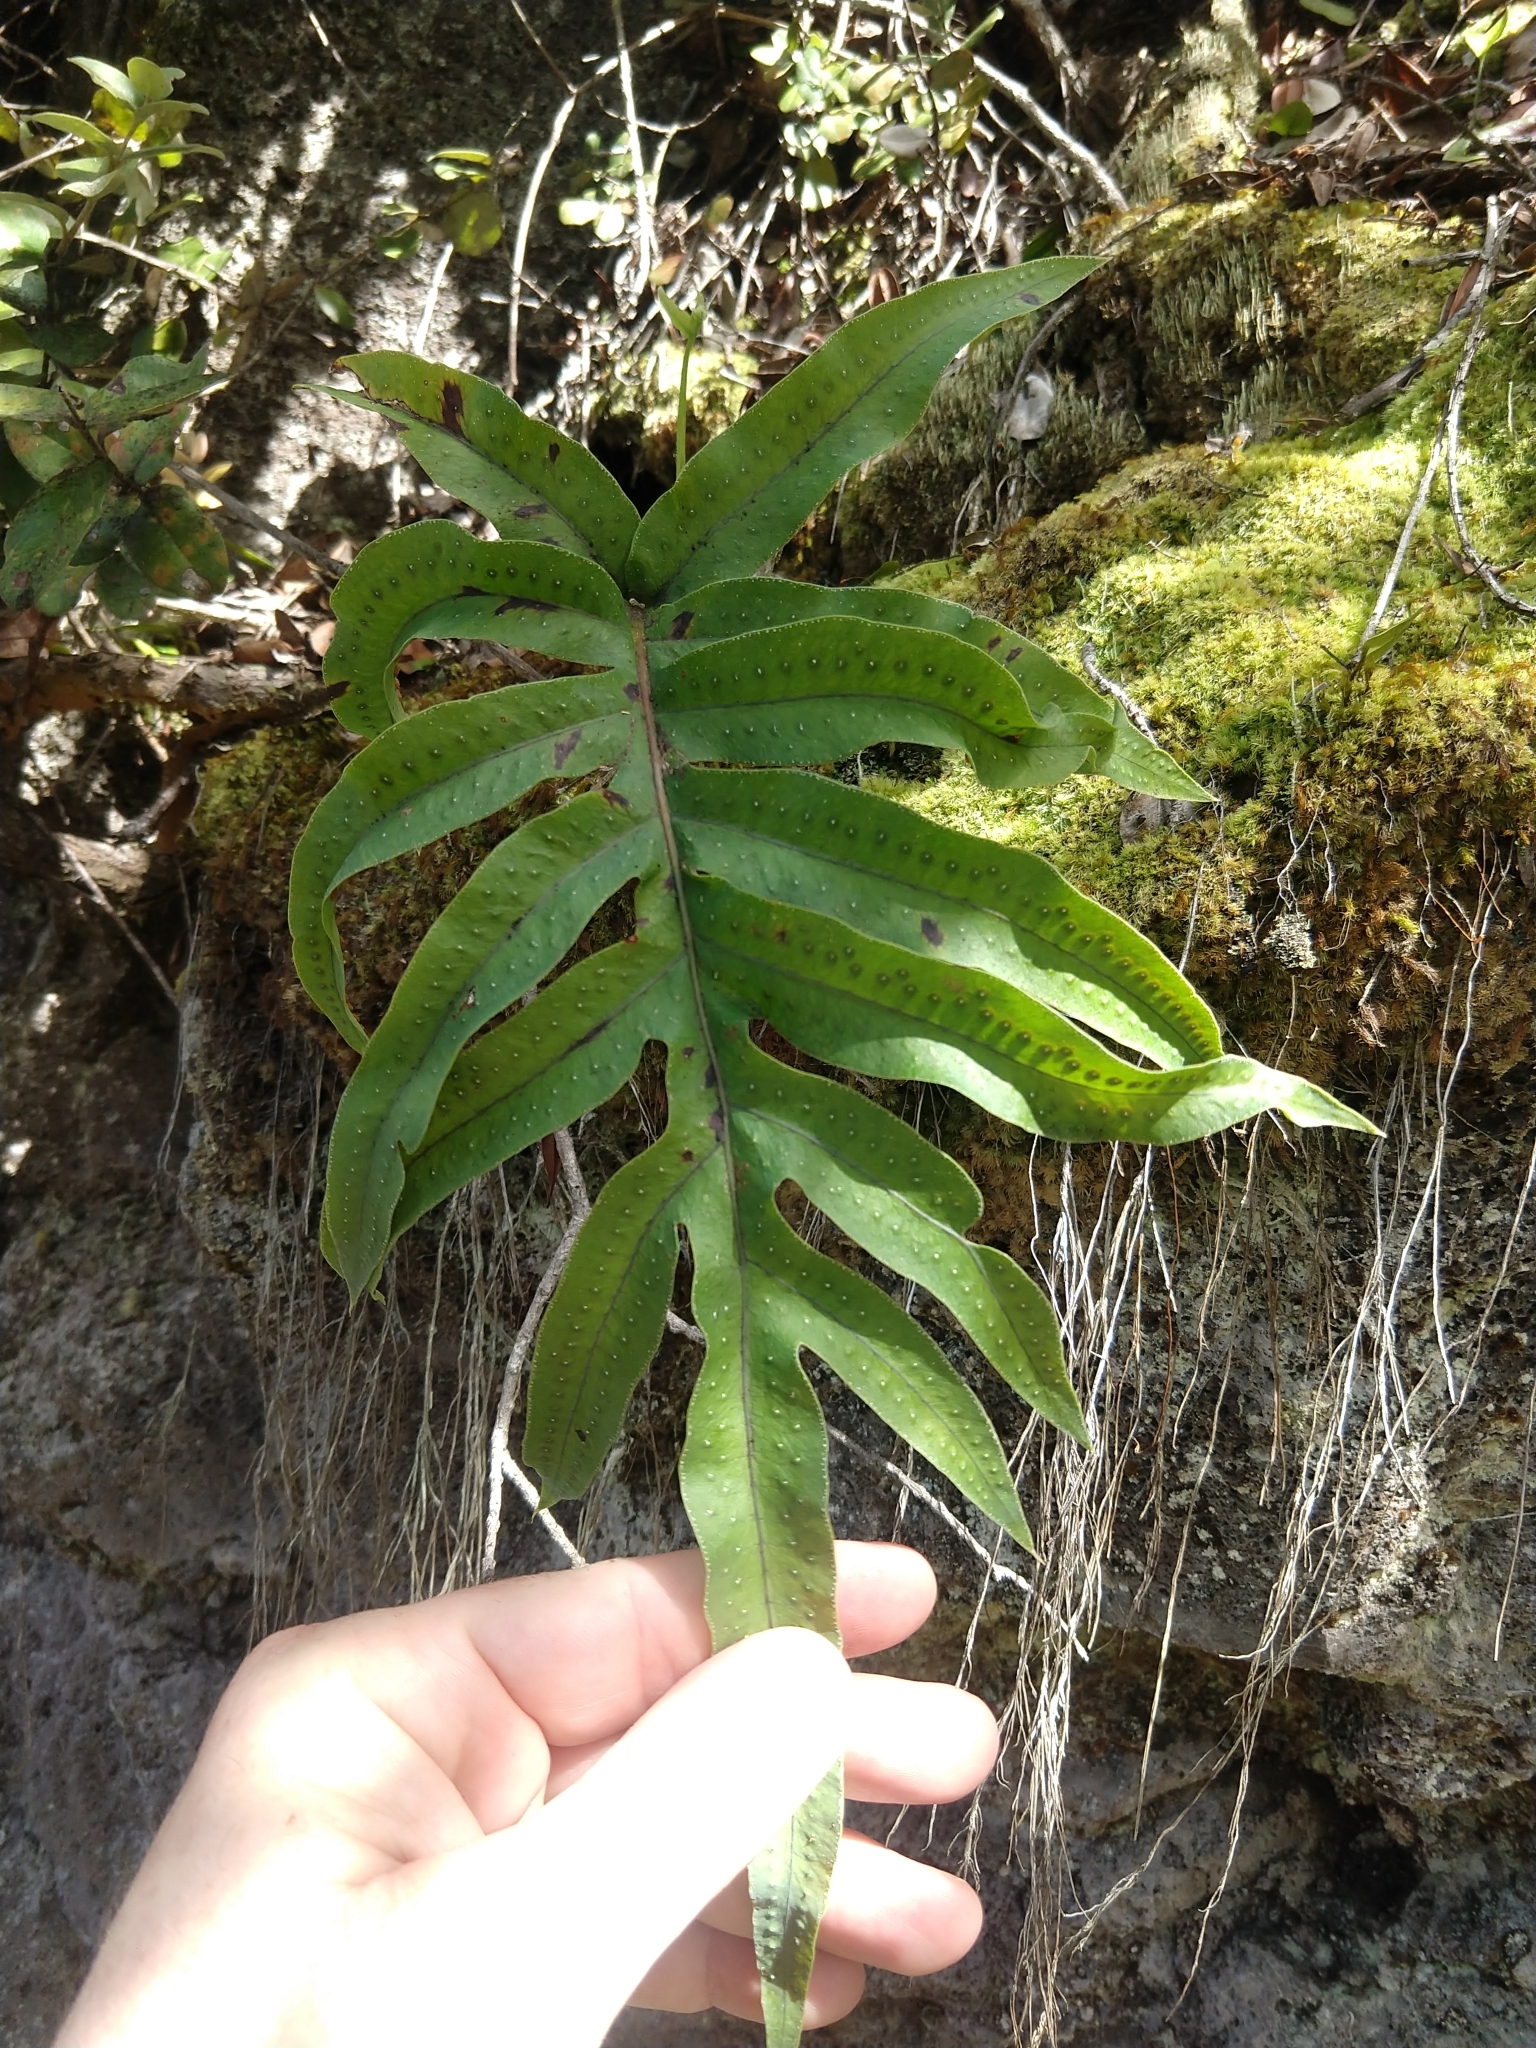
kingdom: Plantae
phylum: Tracheophyta
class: Polypodiopsida
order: Polypodiales
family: Polypodiaceae
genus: Phlebodium
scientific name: Phlebodium aureum
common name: Gold-foot fern
